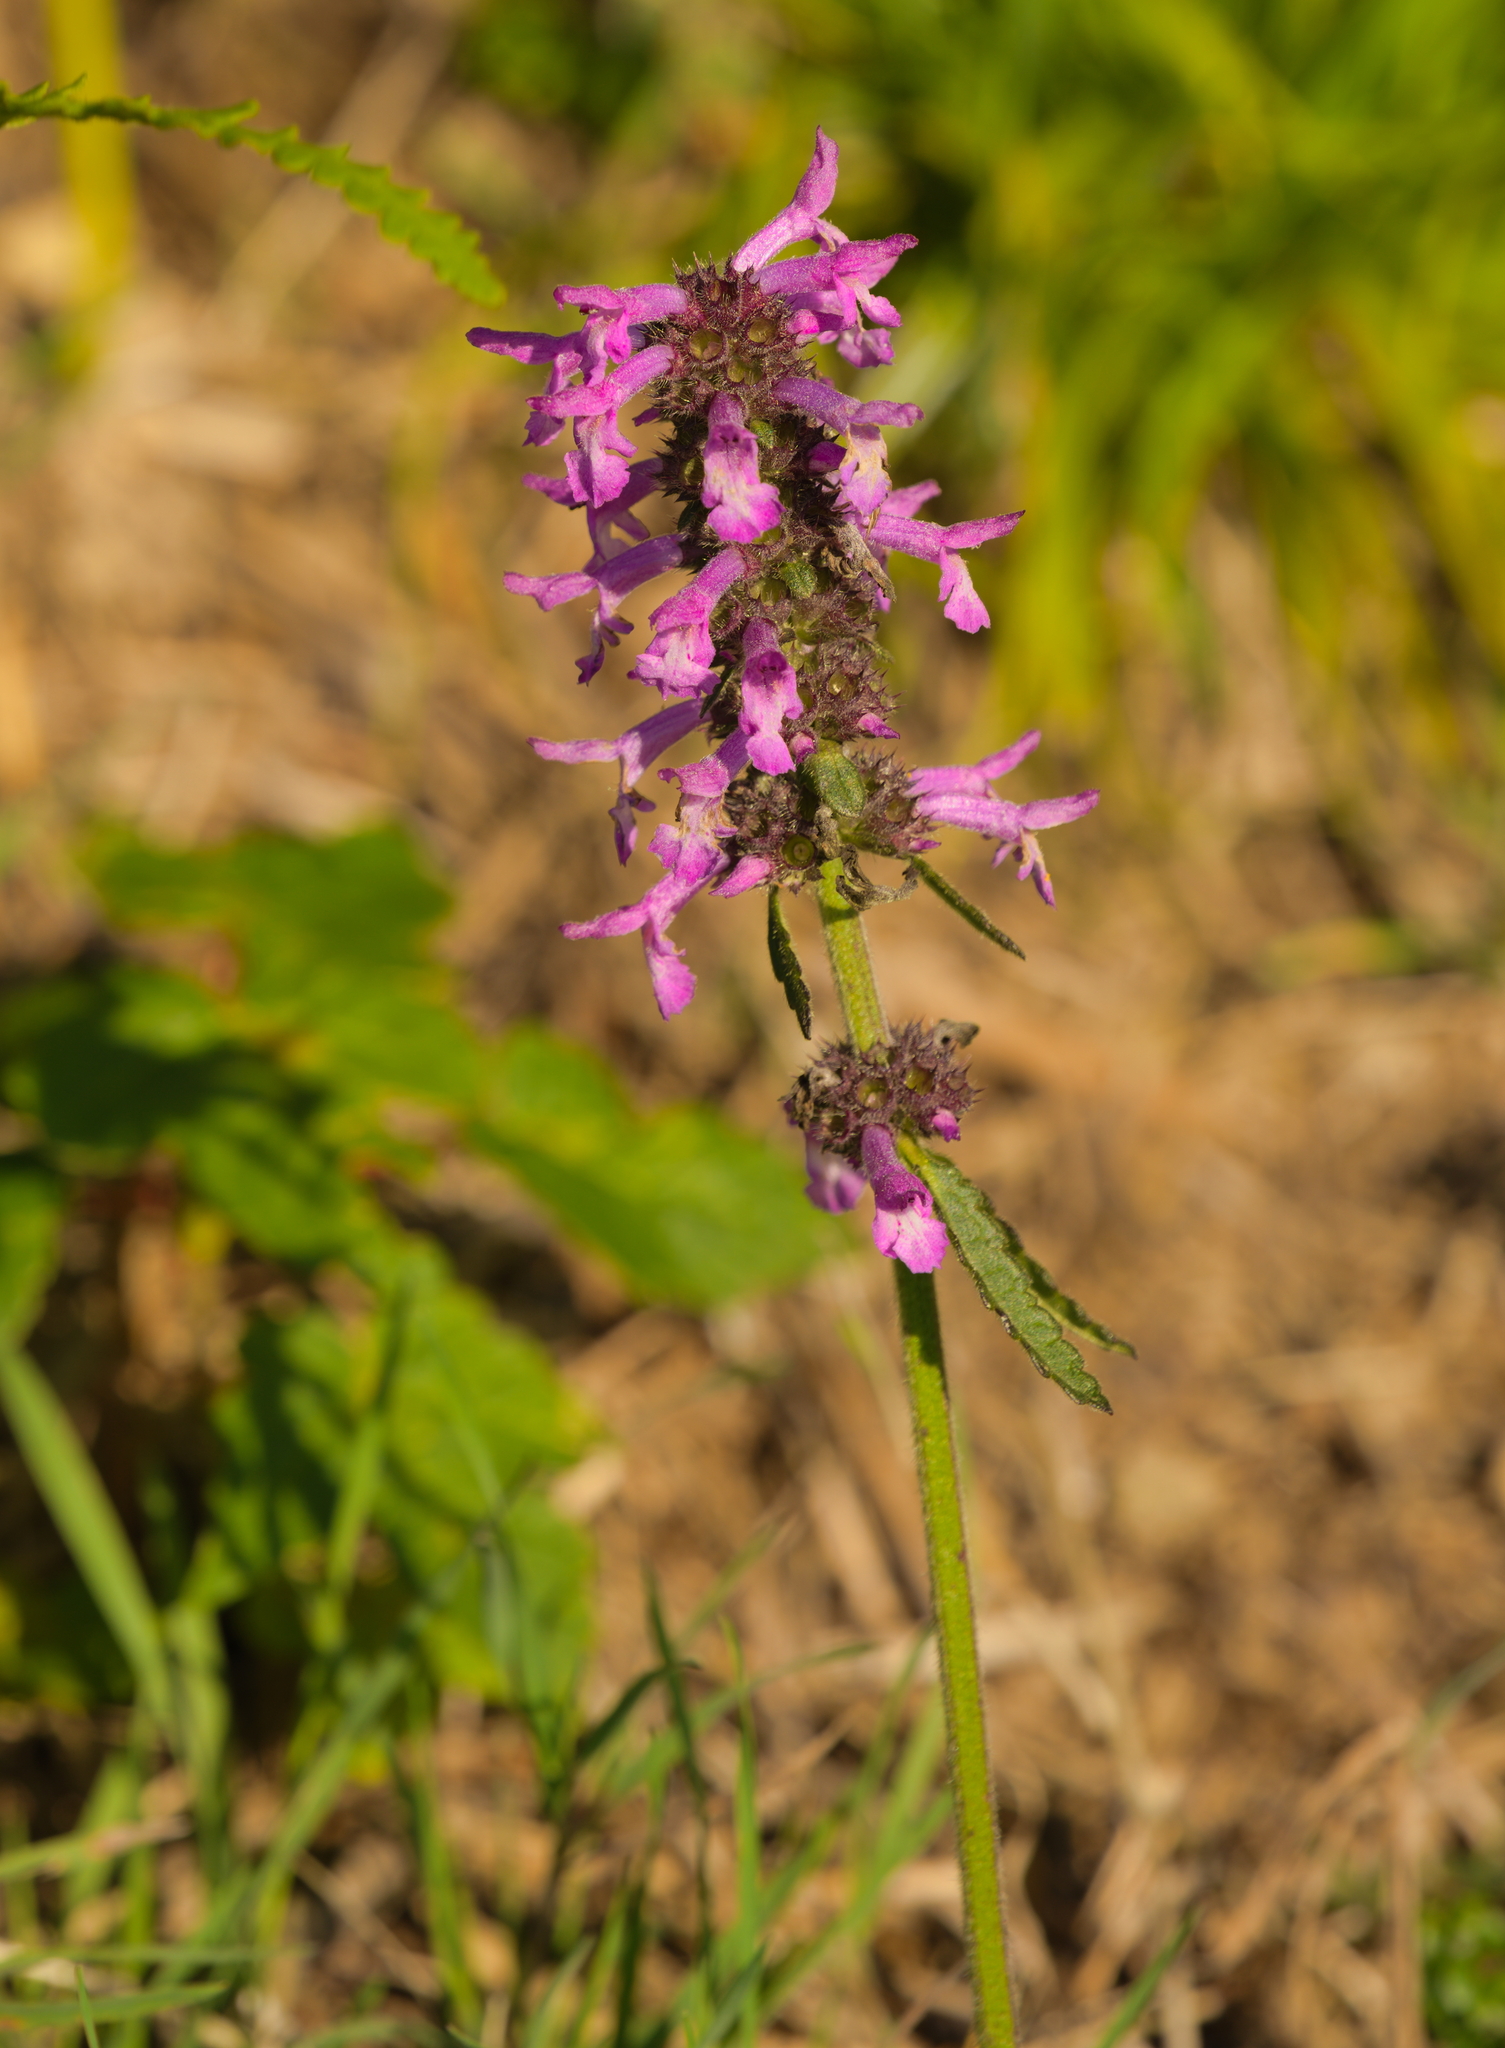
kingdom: Plantae
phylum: Tracheophyta
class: Magnoliopsida
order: Lamiales
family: Lamiaceae
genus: Betonica
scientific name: Betonica officinalis
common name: Bishop's-wort
